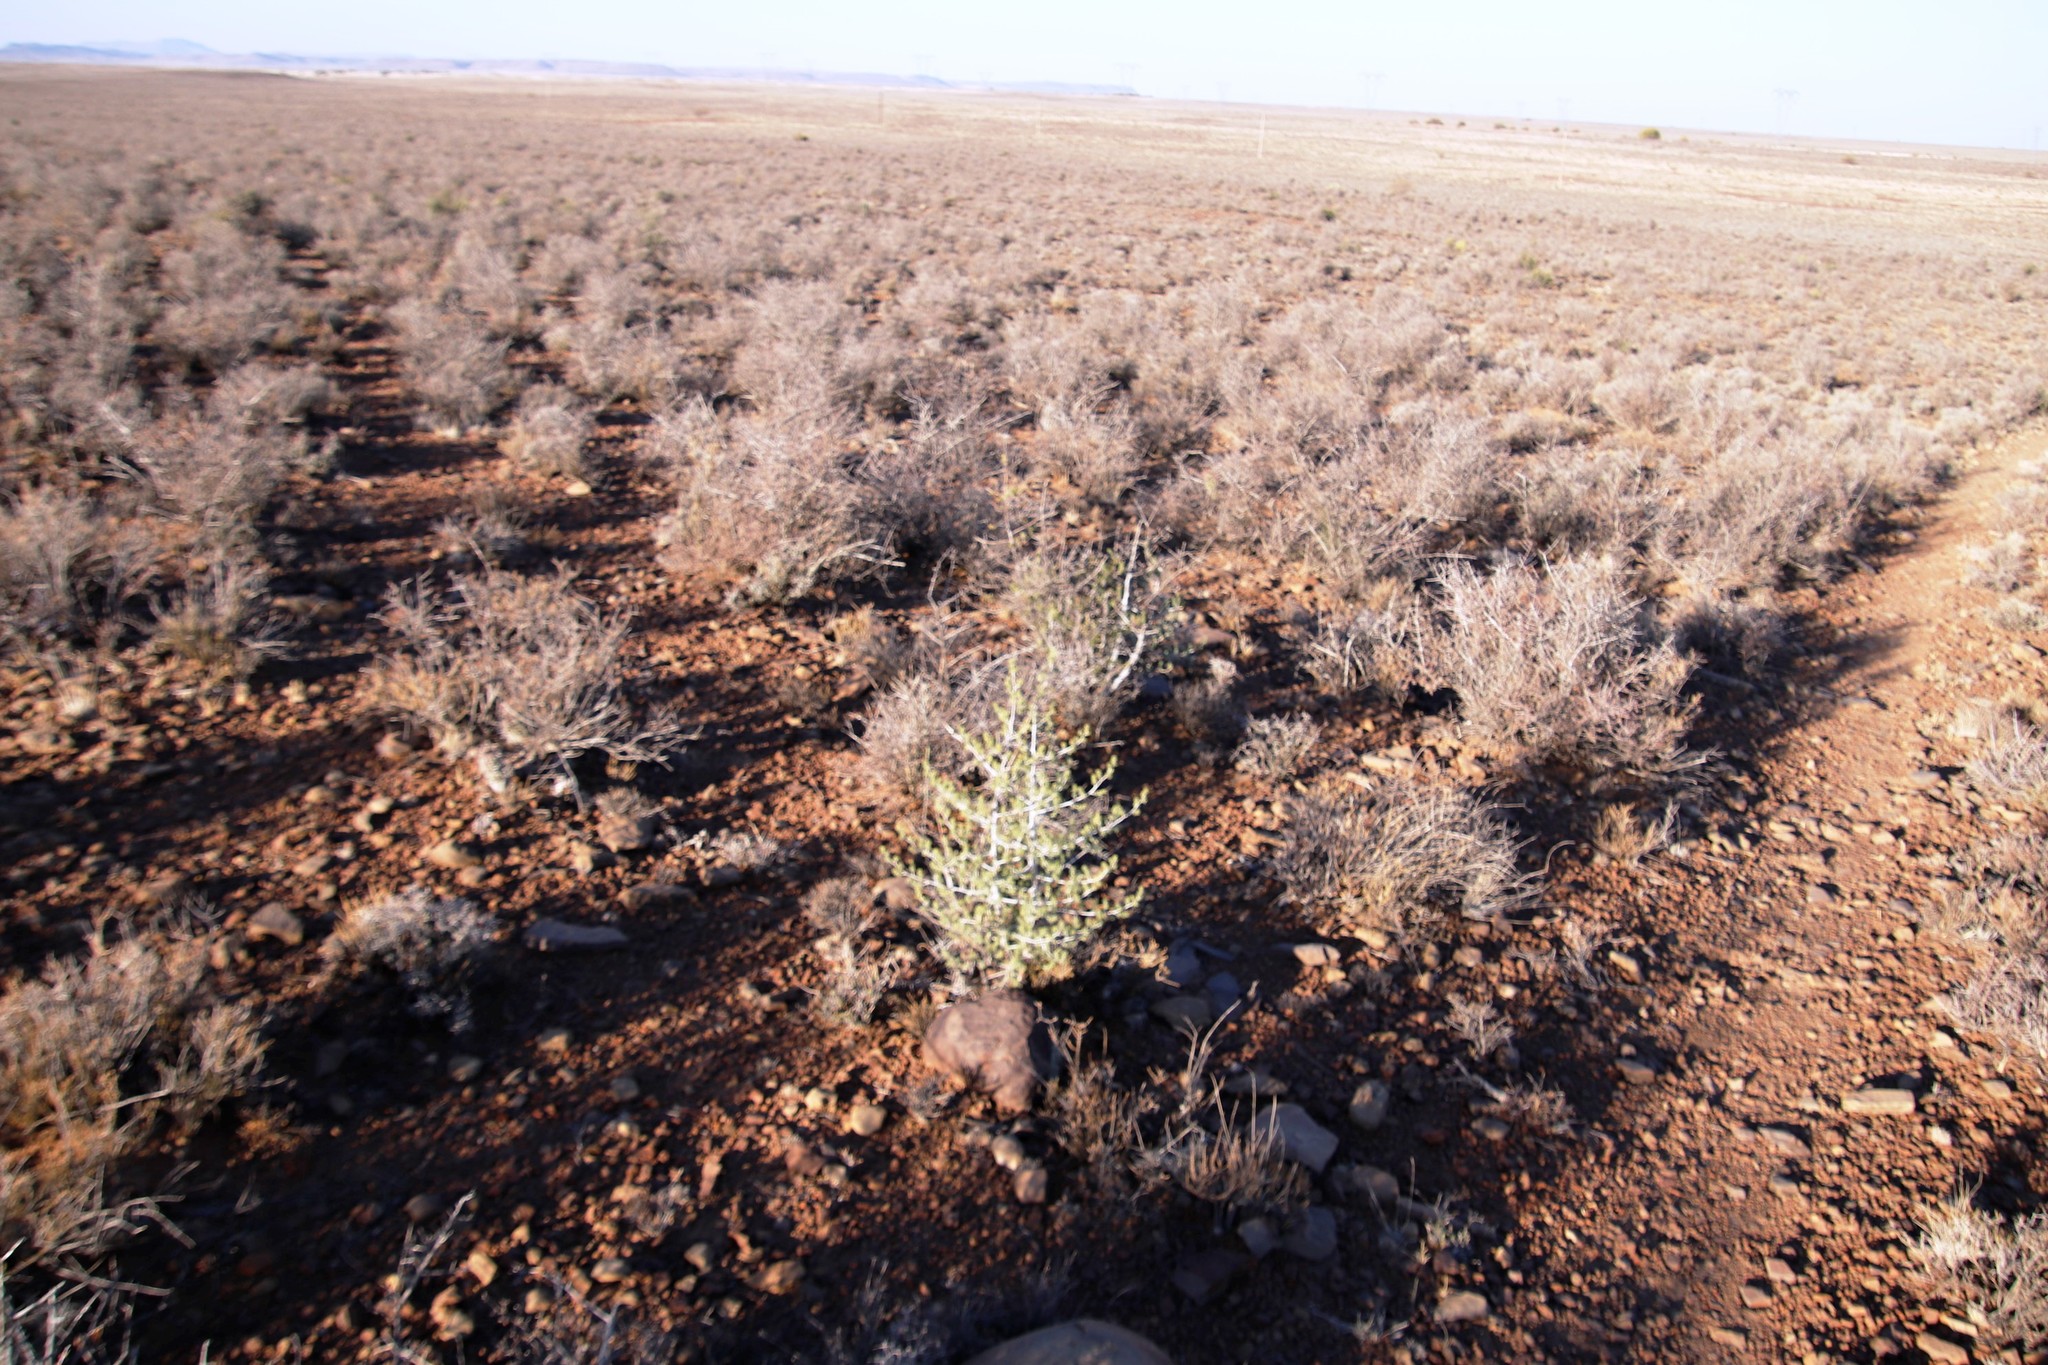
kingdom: Plantae
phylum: Tracheophyta
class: Liliopsida
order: Asparagales
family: Asparagaceae
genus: Asparagus
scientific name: Asparagus mucronatus
